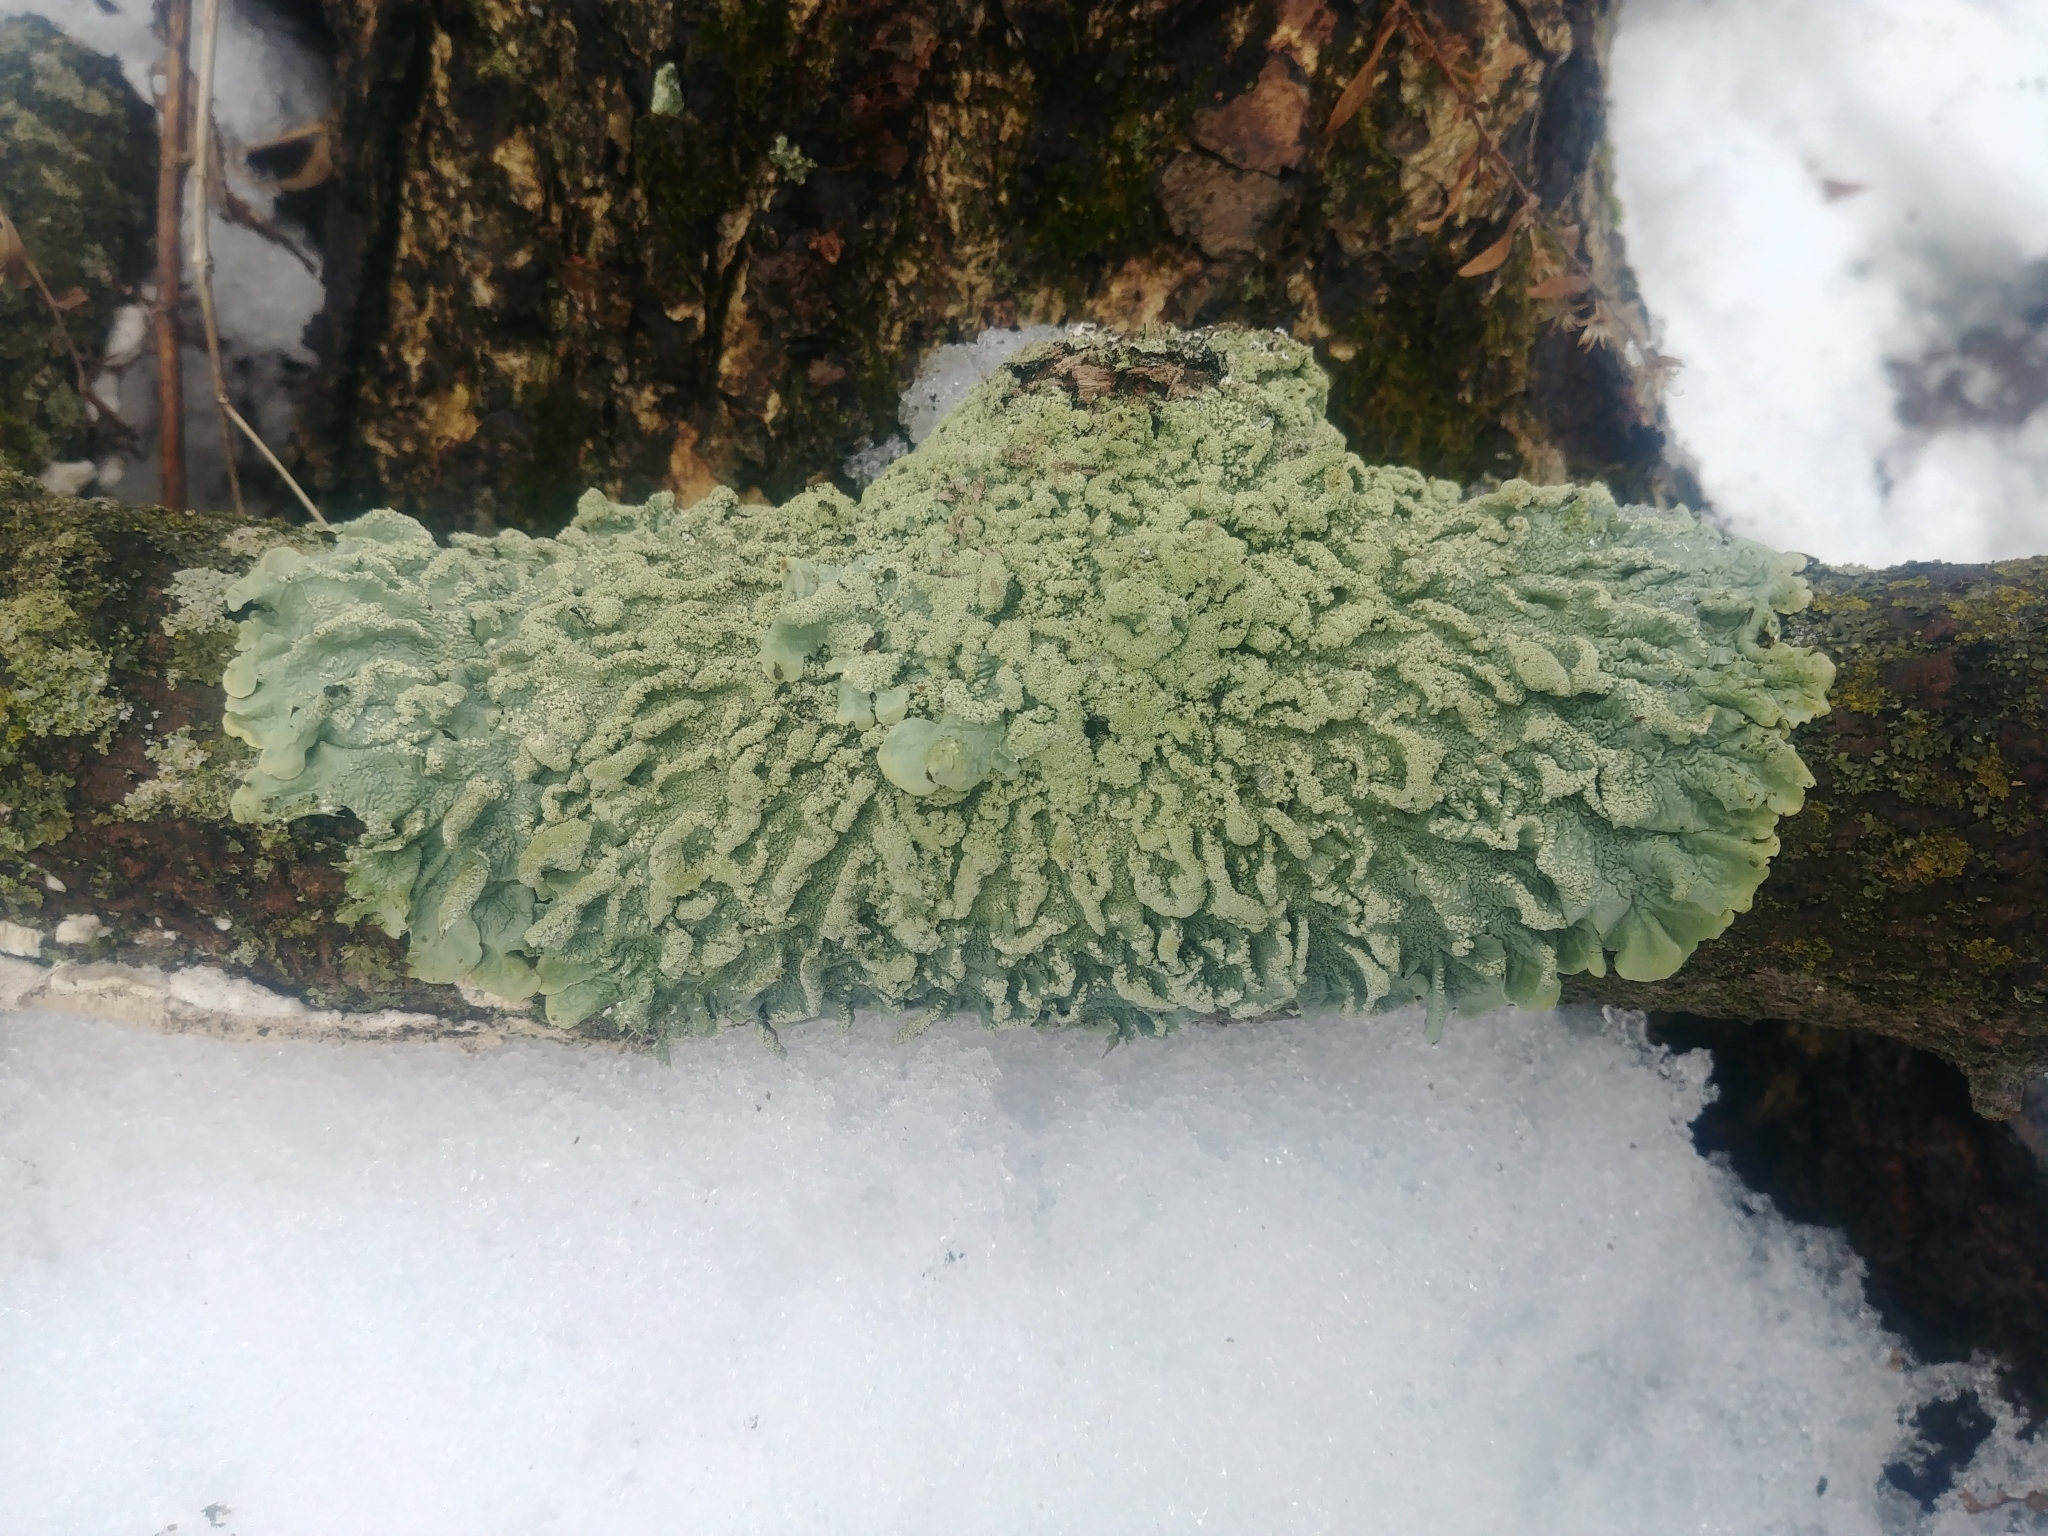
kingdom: Fungi
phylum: Ascomycota
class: Lecanoromycetes
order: Lecanorales
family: Parmeliaceae
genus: Flavoparmelia
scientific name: Flavoparmelia caperata
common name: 40-mile per hour lichen
